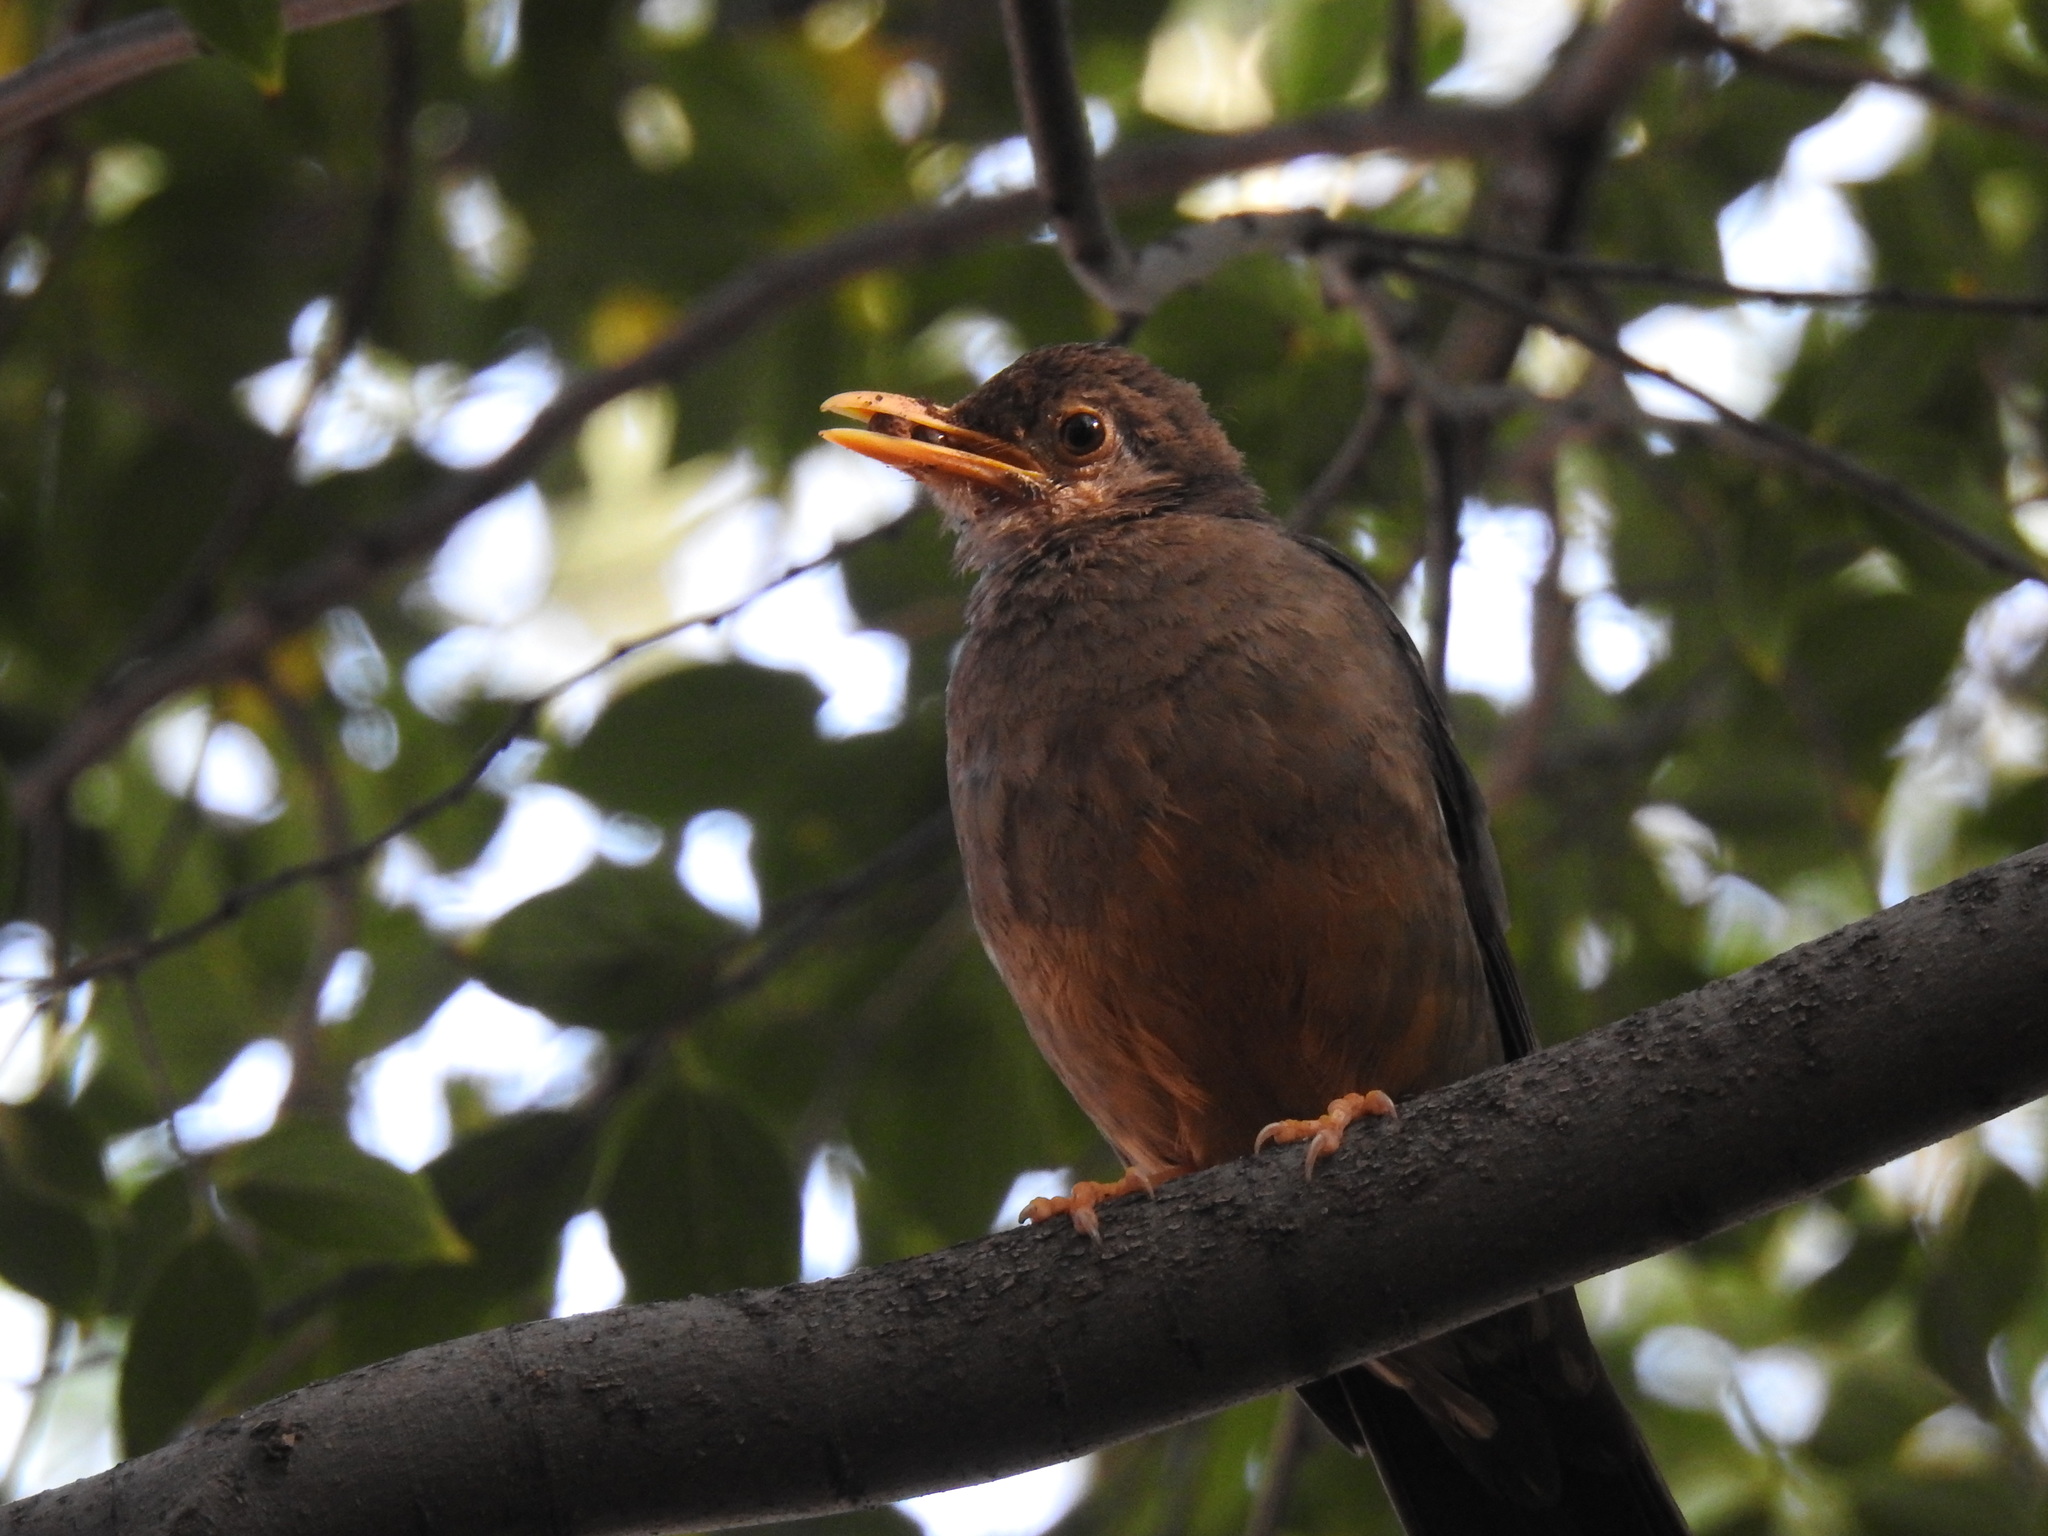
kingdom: Animalia
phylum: Chordata
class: Aves
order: Passeriformes
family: Turdidae
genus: Turdus
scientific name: Turdus smithi
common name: Karoo thrush
